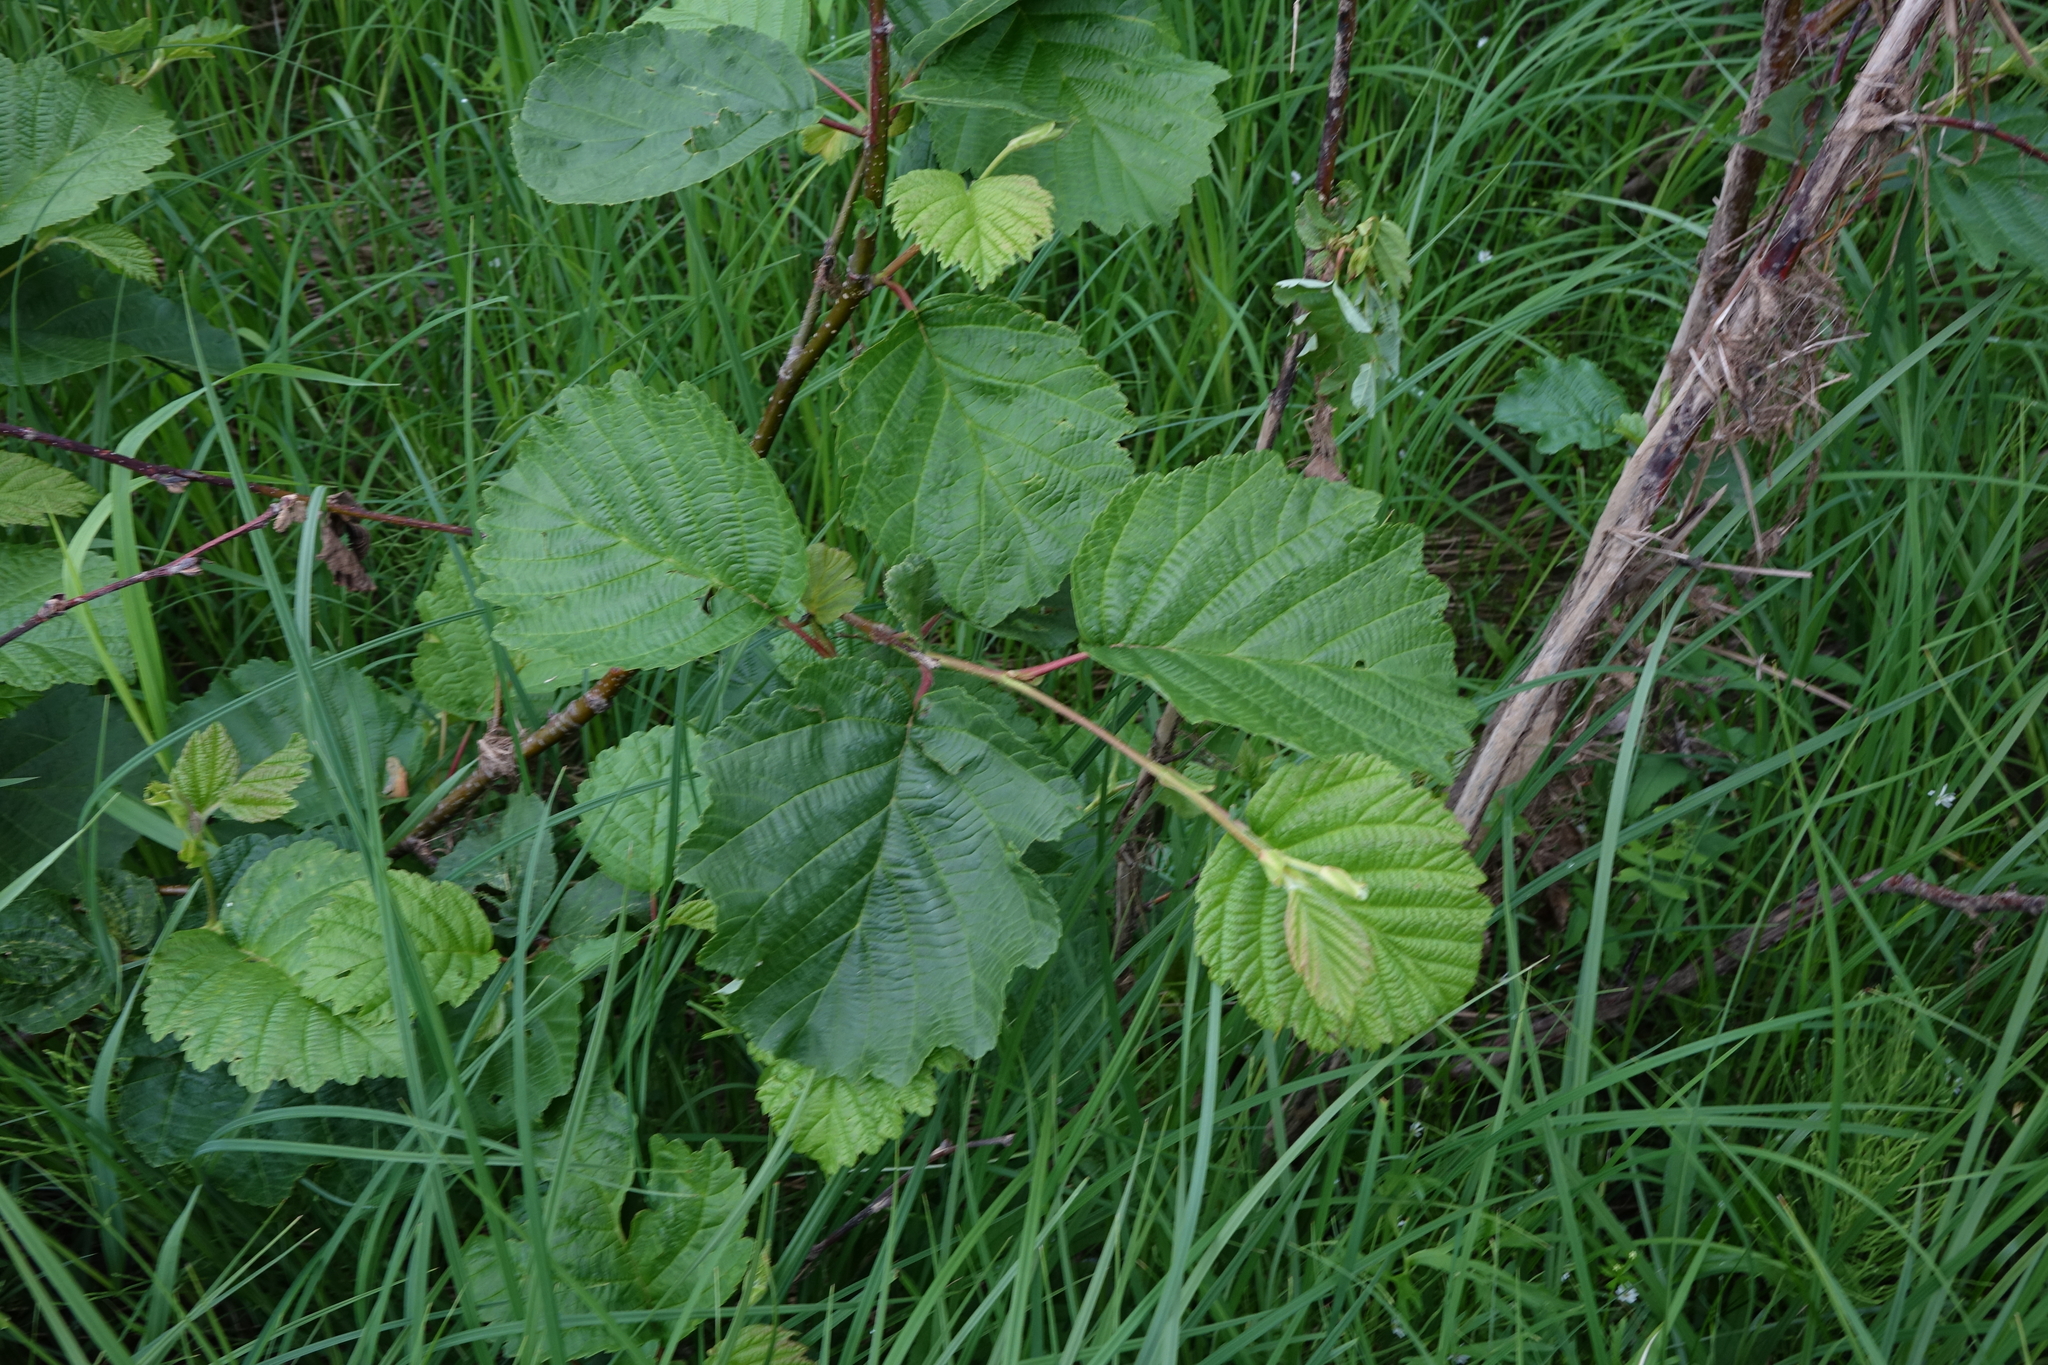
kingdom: Plantae
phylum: Tracheophyta
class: Magnoliopsida
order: Fagales
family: Betulaceae
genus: Alnus
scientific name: Alnus hirsuta
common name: Manchurian alder
